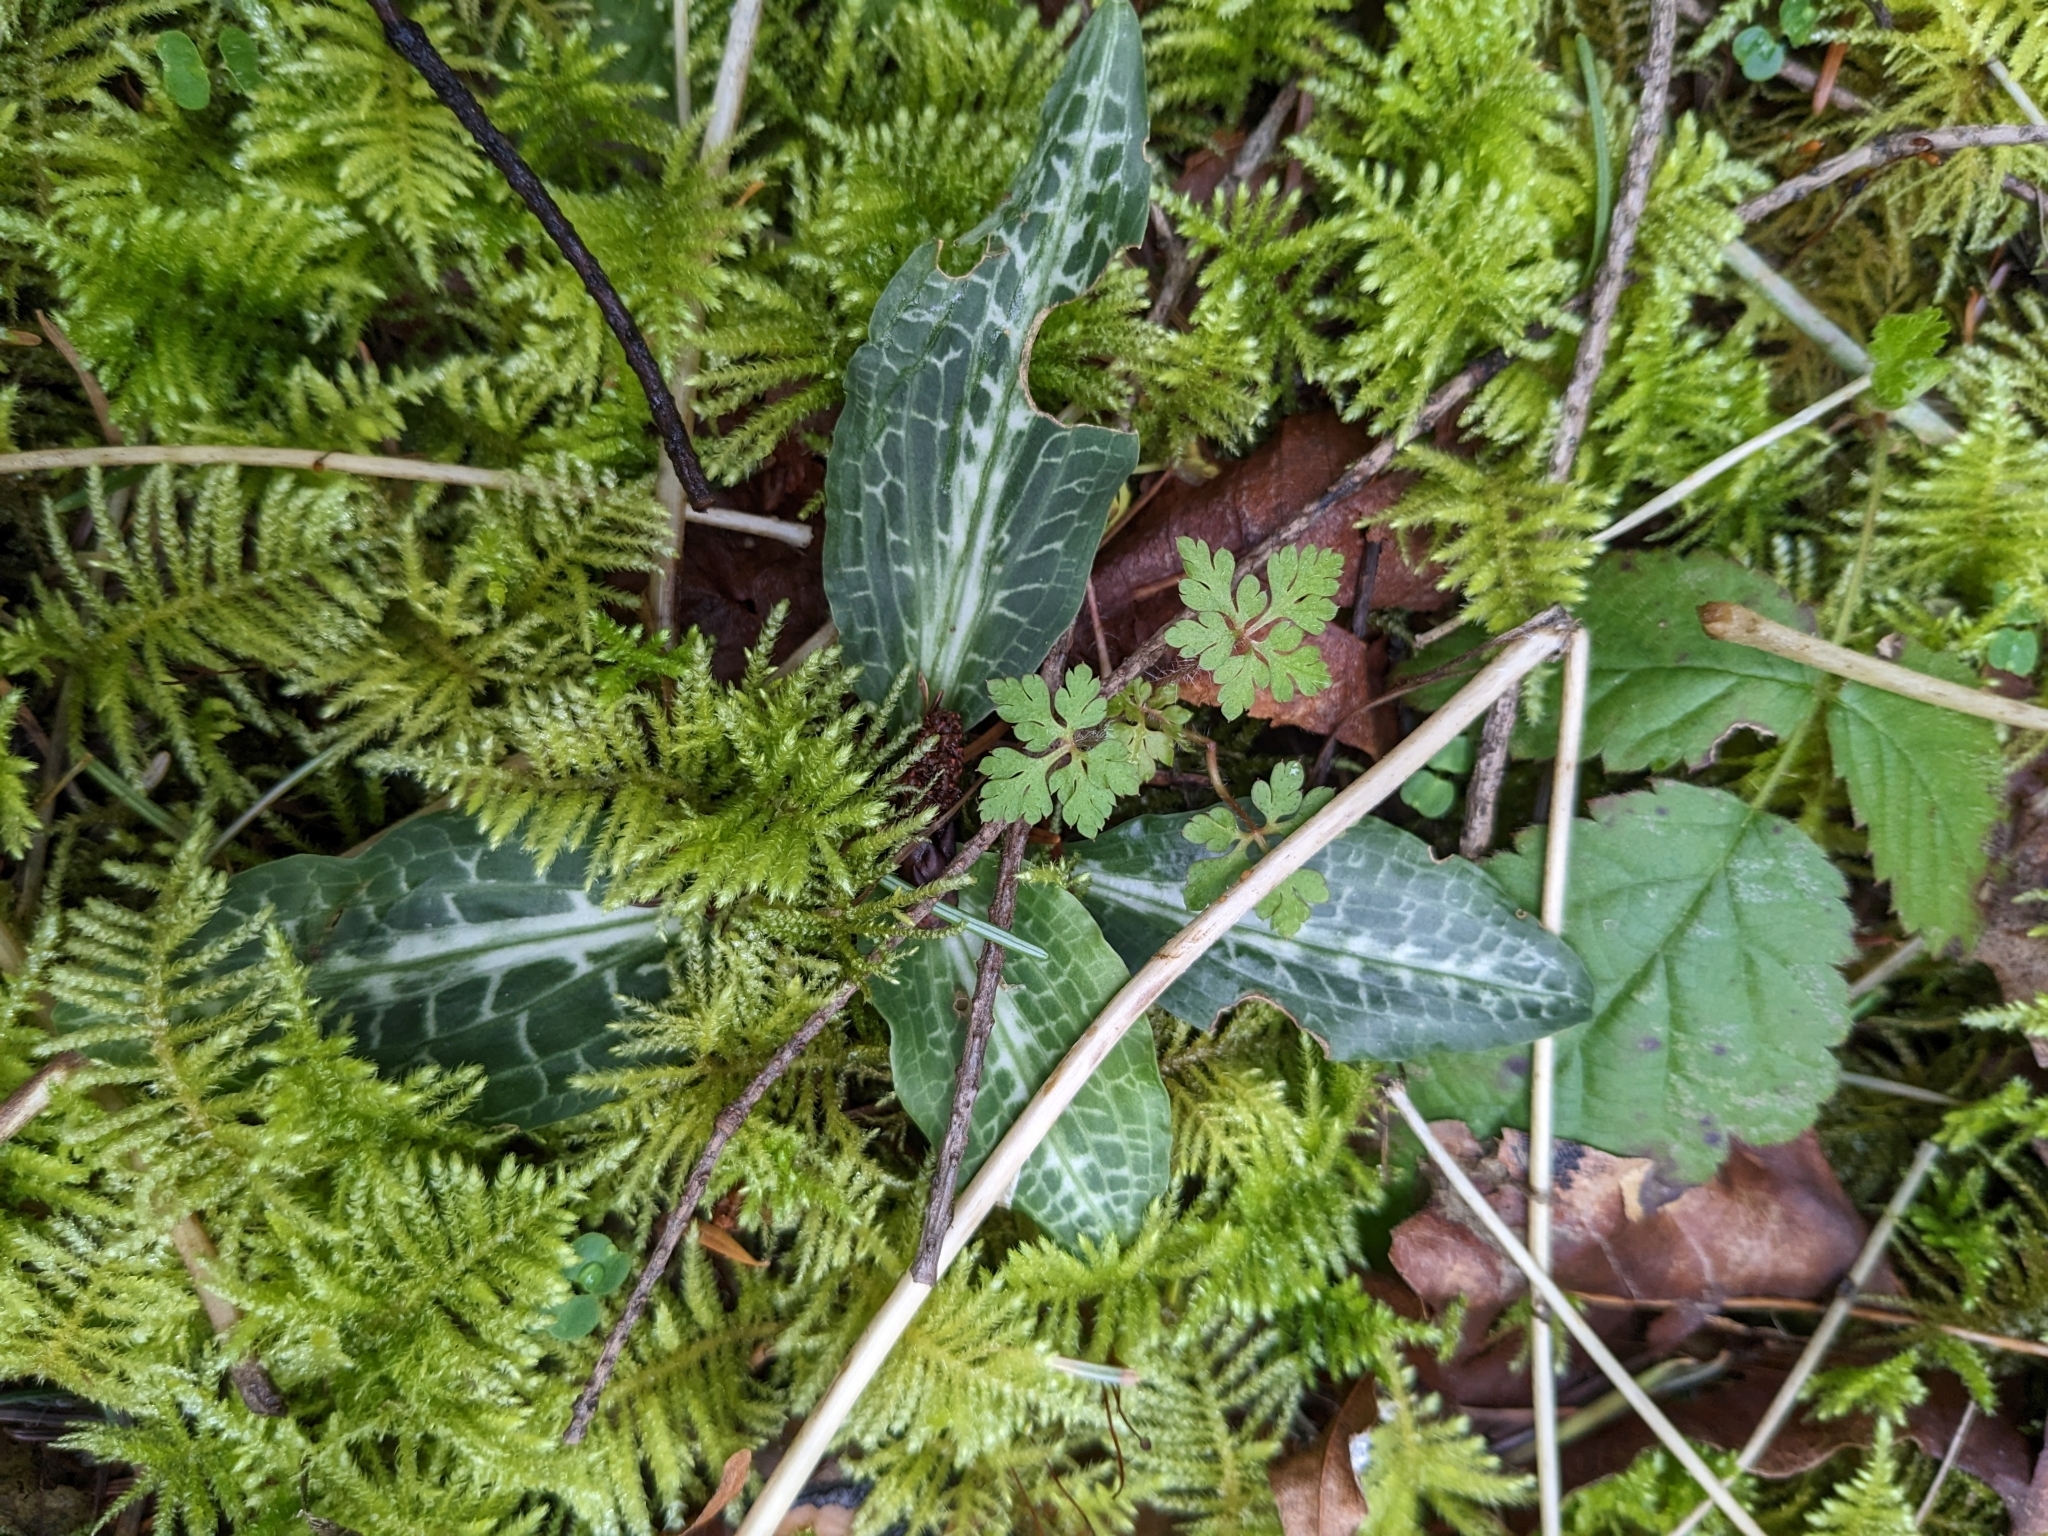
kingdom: Plantae
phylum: Tracheophyta
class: Liliopsida
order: Asparagales
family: Orchidaceae
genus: Goodyera
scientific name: Goodyera oblongifolia
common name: Giant rattlesnake-plantain
